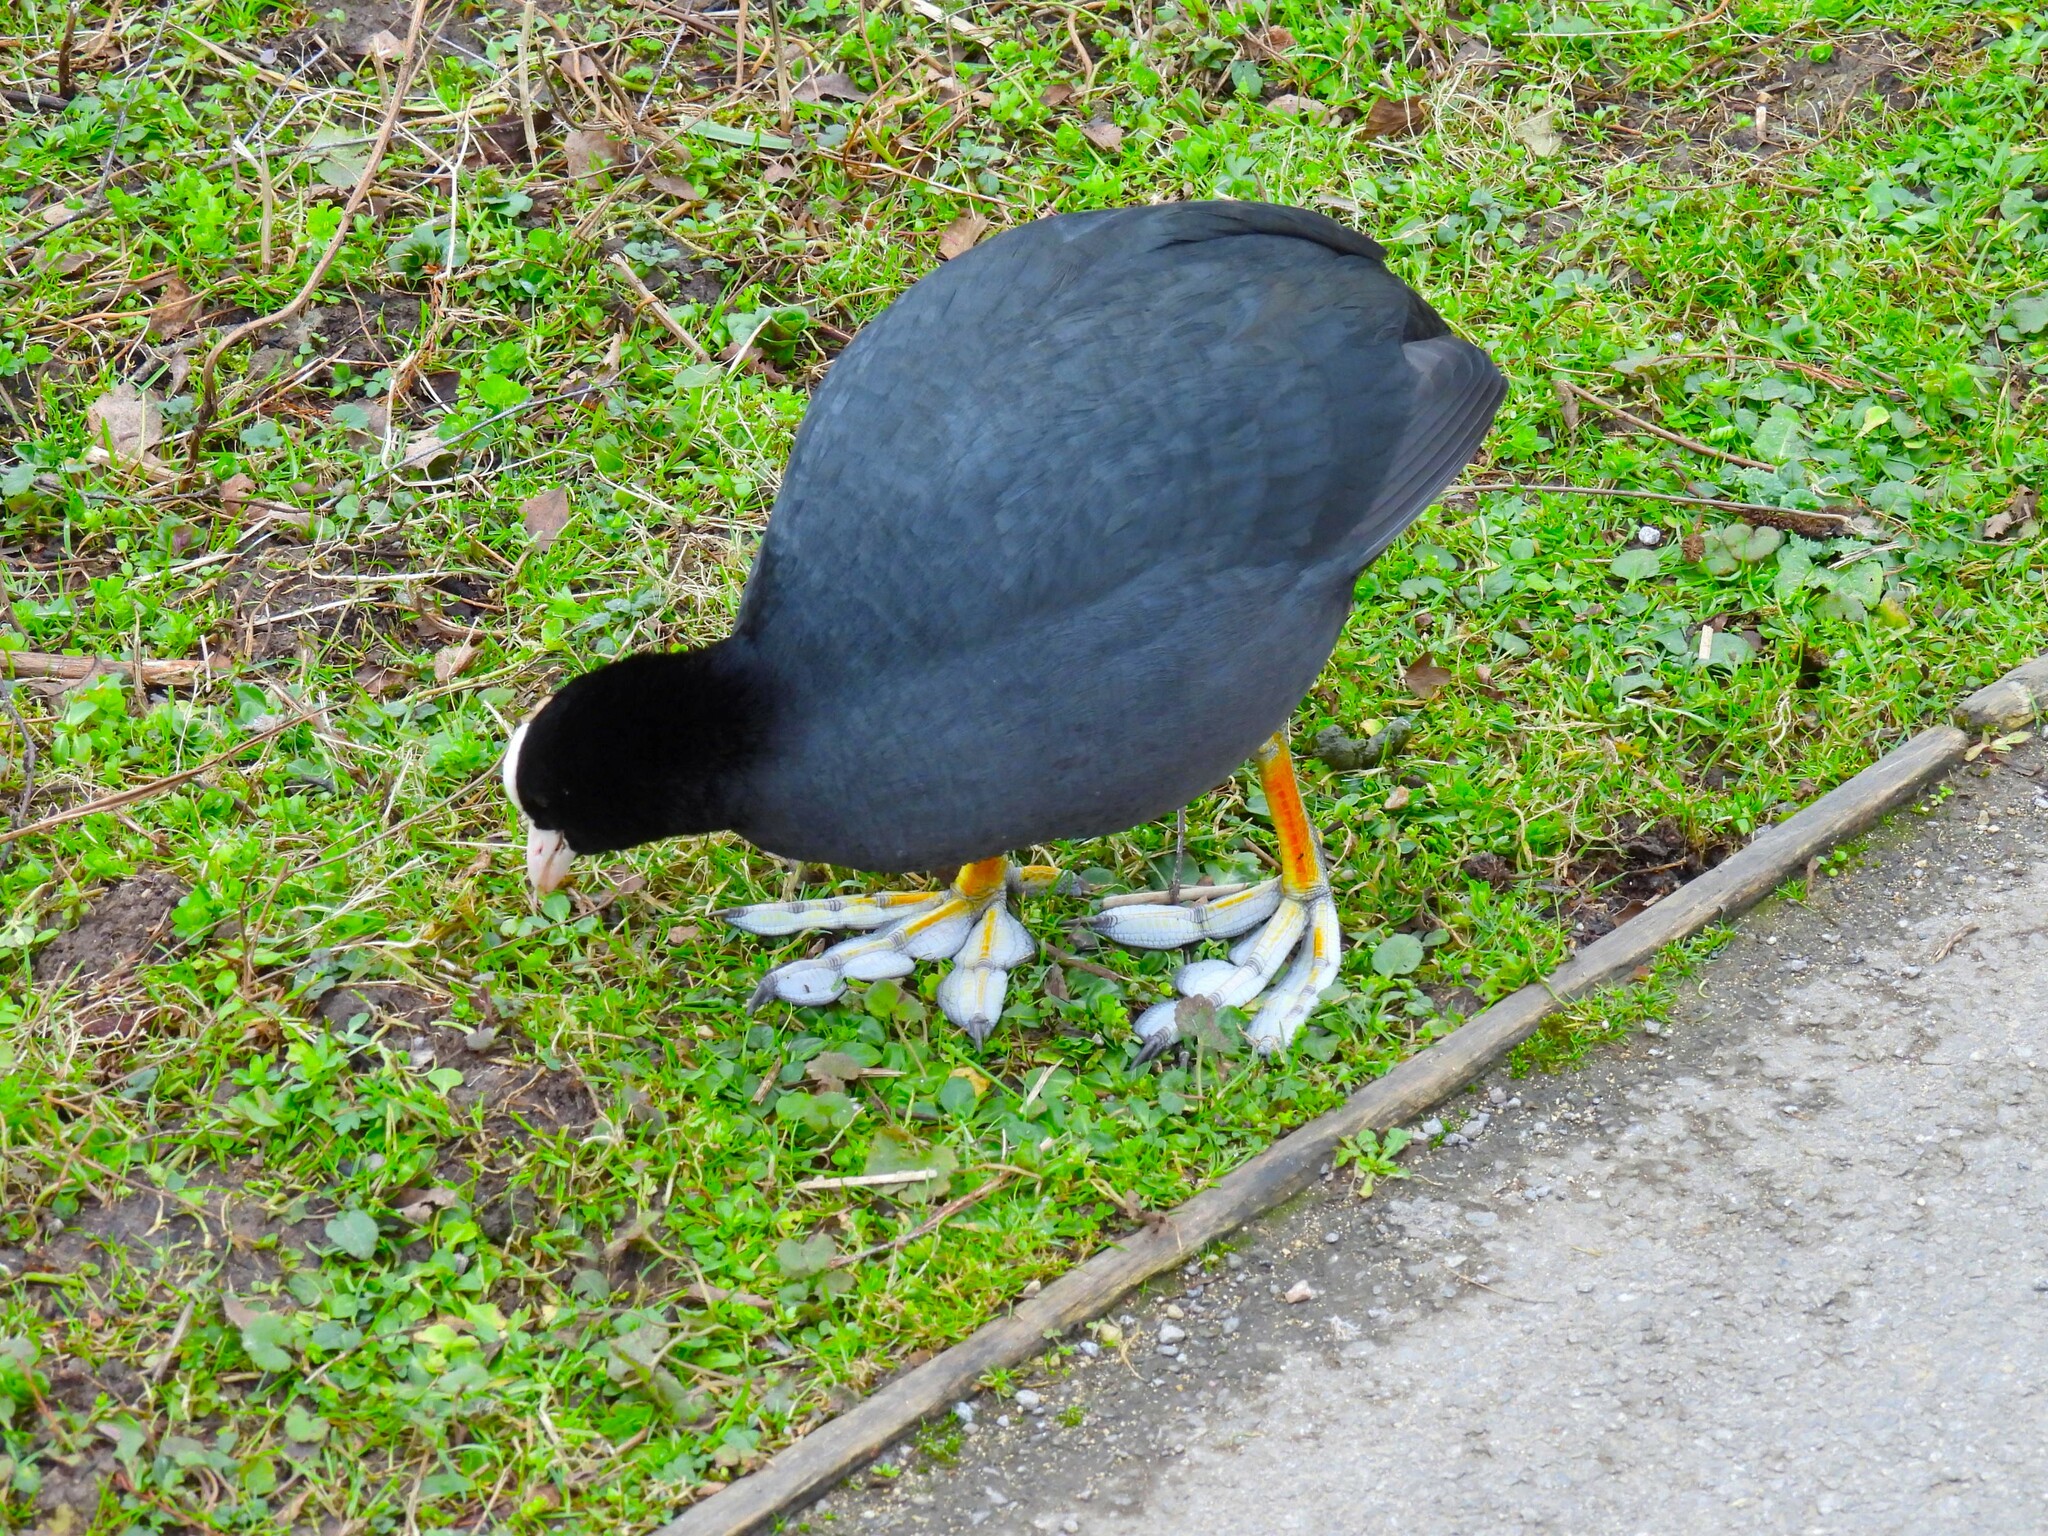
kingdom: Animalia
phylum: Chordata
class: Aves
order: Gruiformes
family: Rallidae
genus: Fulica
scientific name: Fulica atra
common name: Eurasian coot
